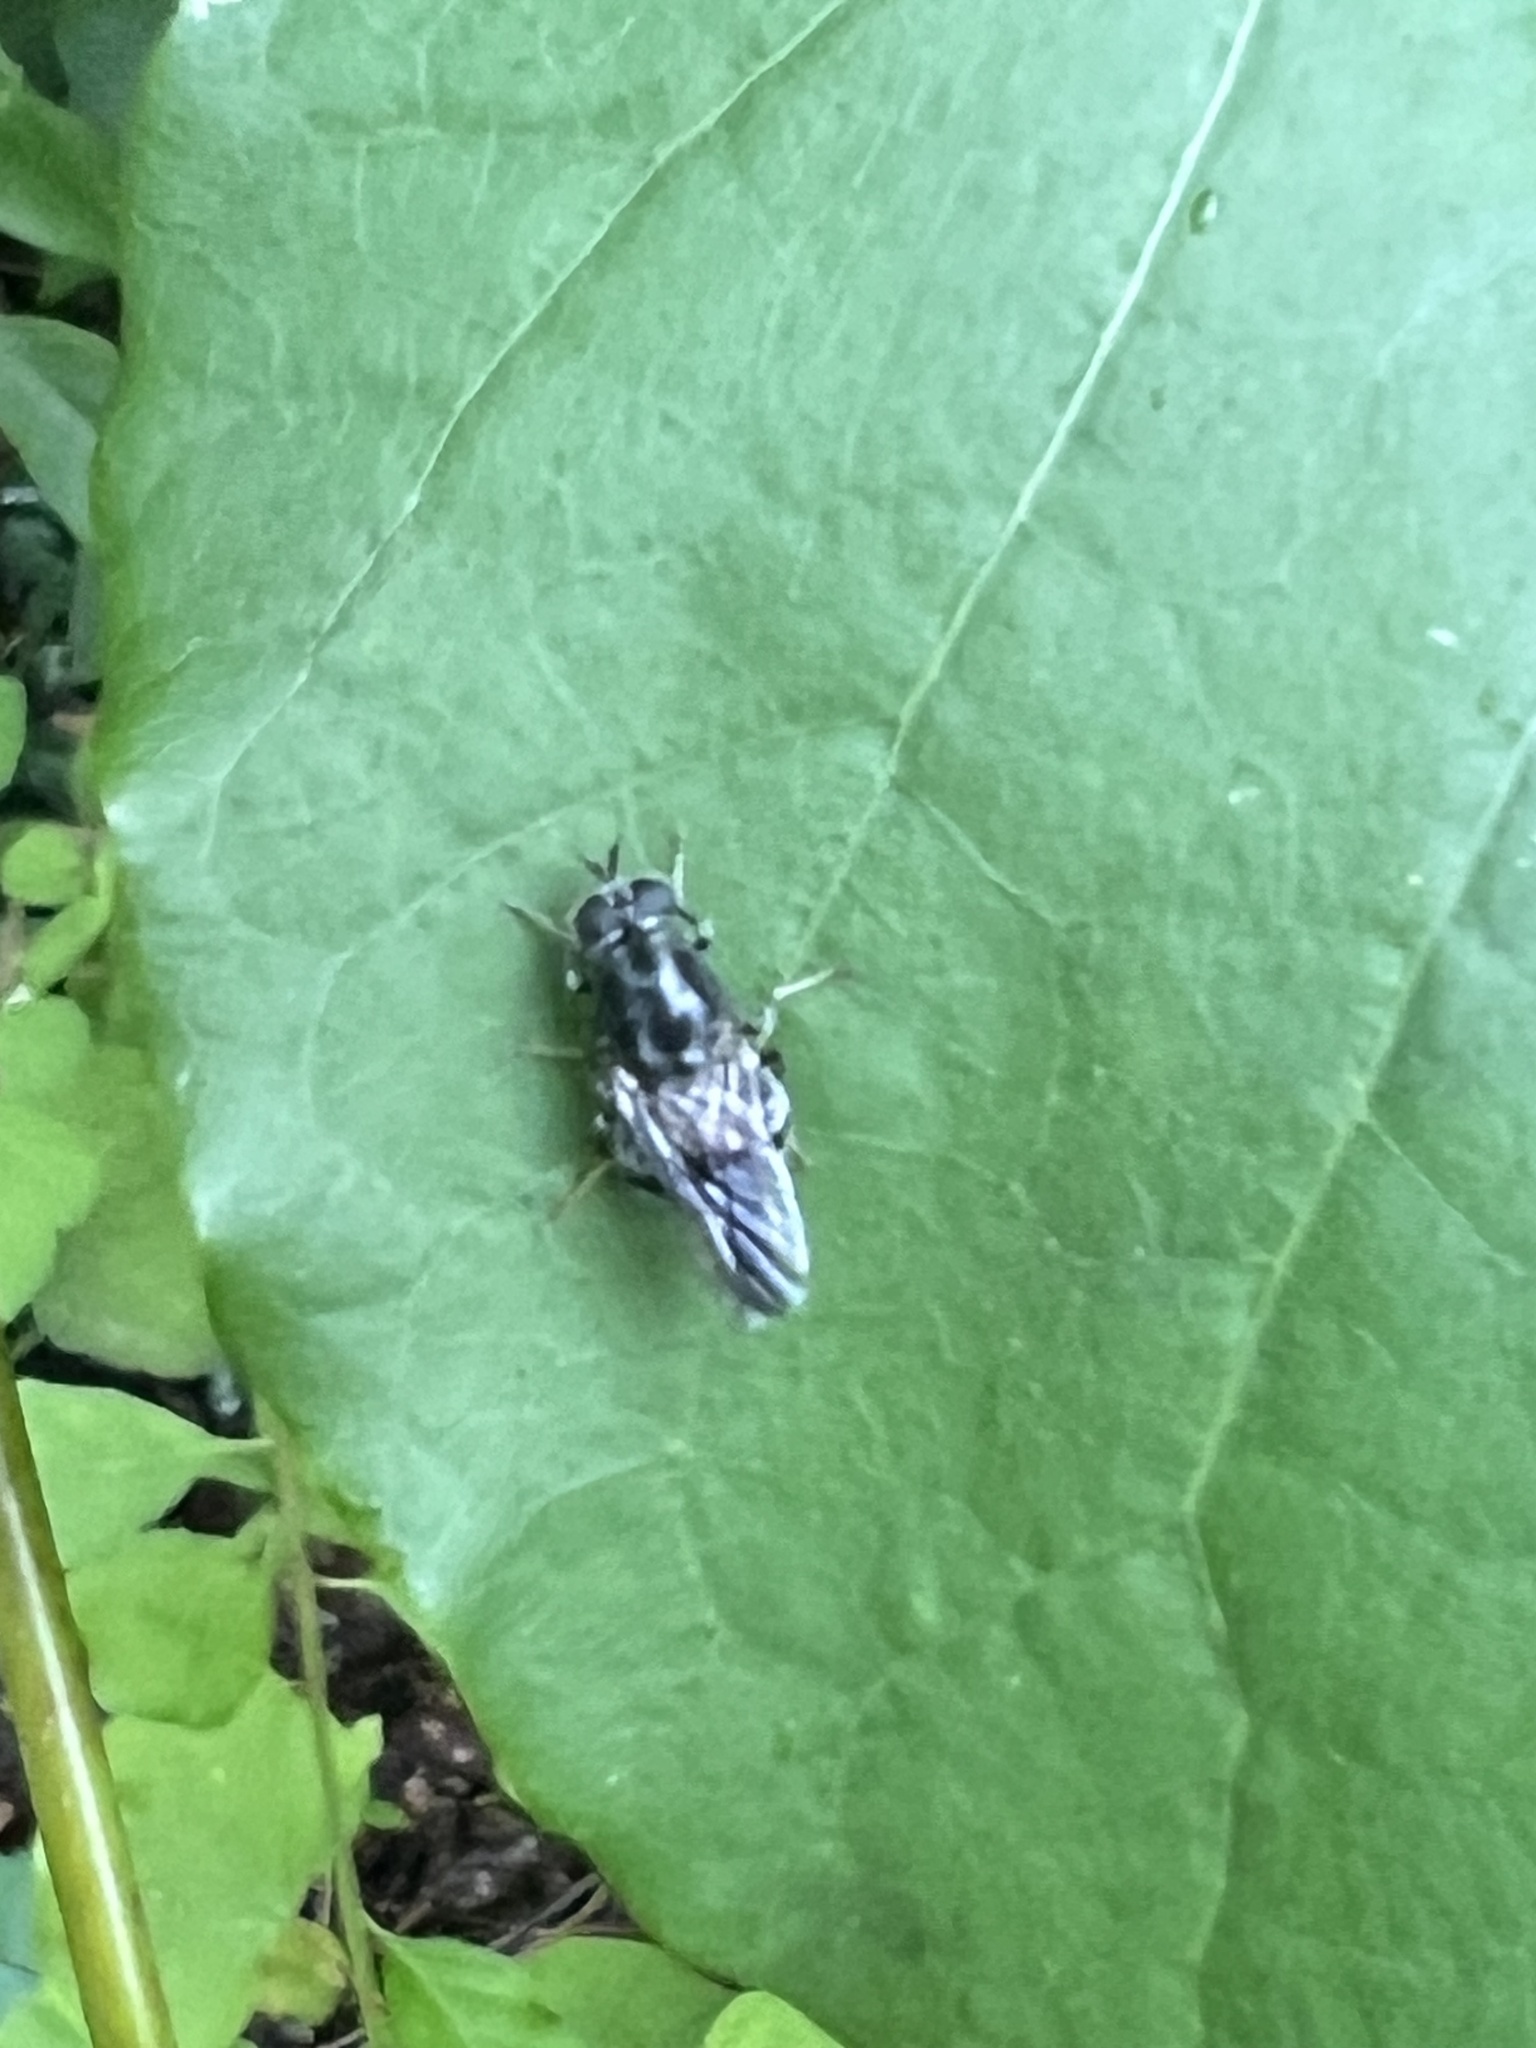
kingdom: Animalia
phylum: Arthropoda
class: Insecta
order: Diptera
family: Stratiomyidae
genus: Adoxomyia
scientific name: Adoxomyia subulata
